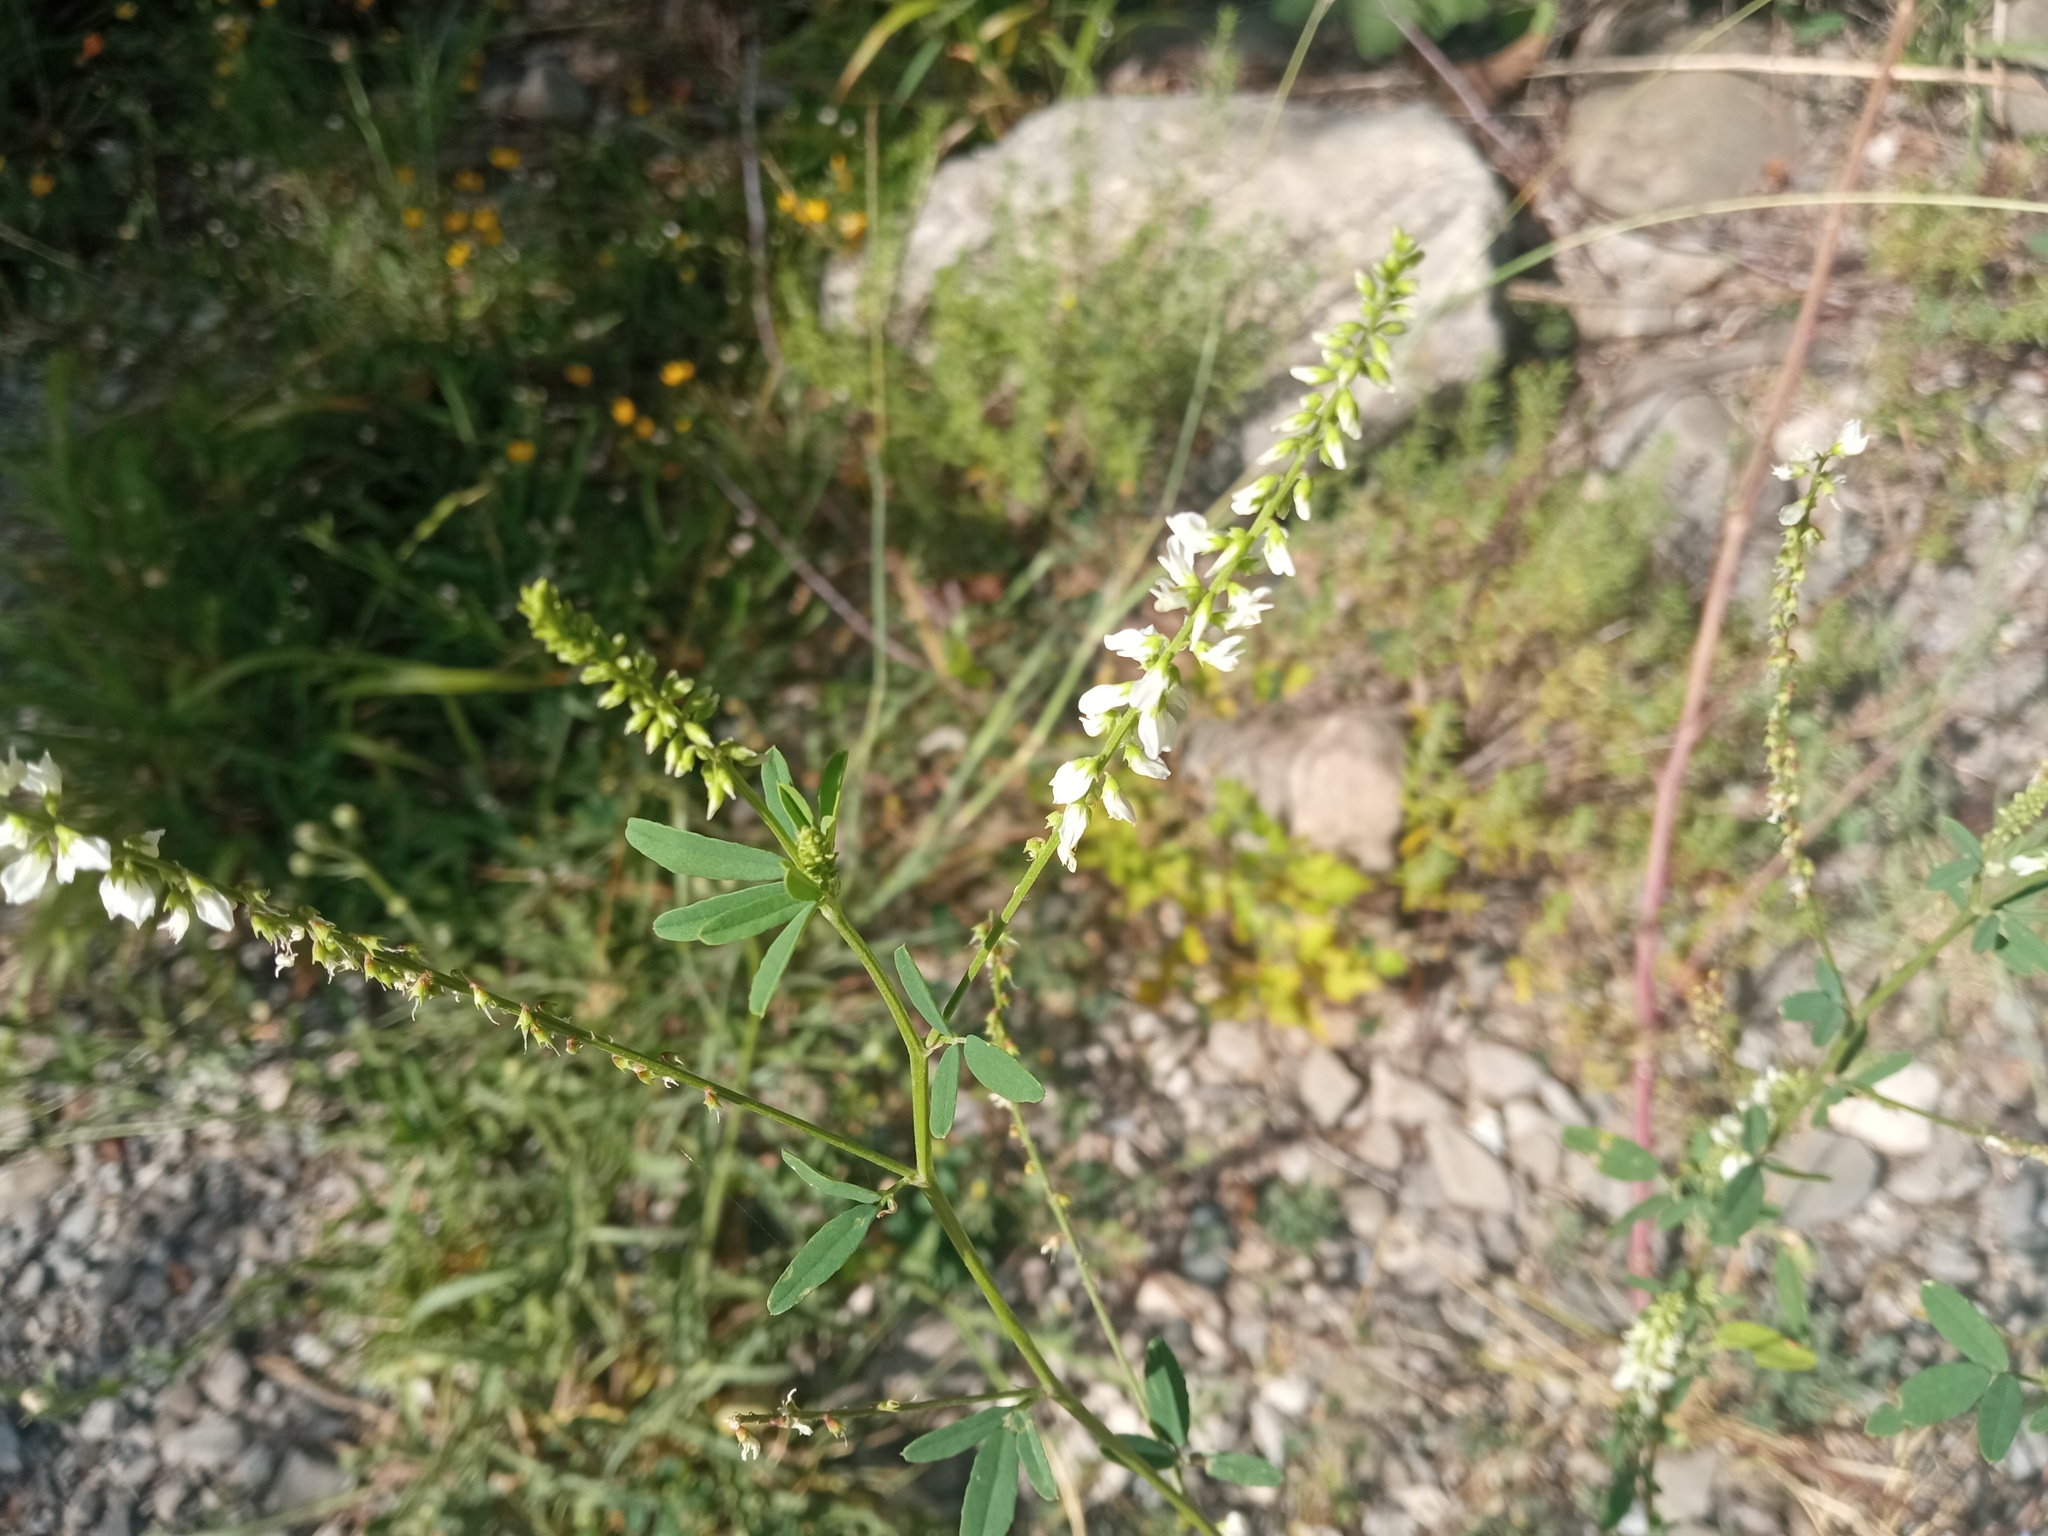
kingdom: Plantae
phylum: Tracheophyta
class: Magnoliopsida
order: Fabales
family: Fabaceae
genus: Melilotus
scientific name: Melilotus albus
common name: White melilot
